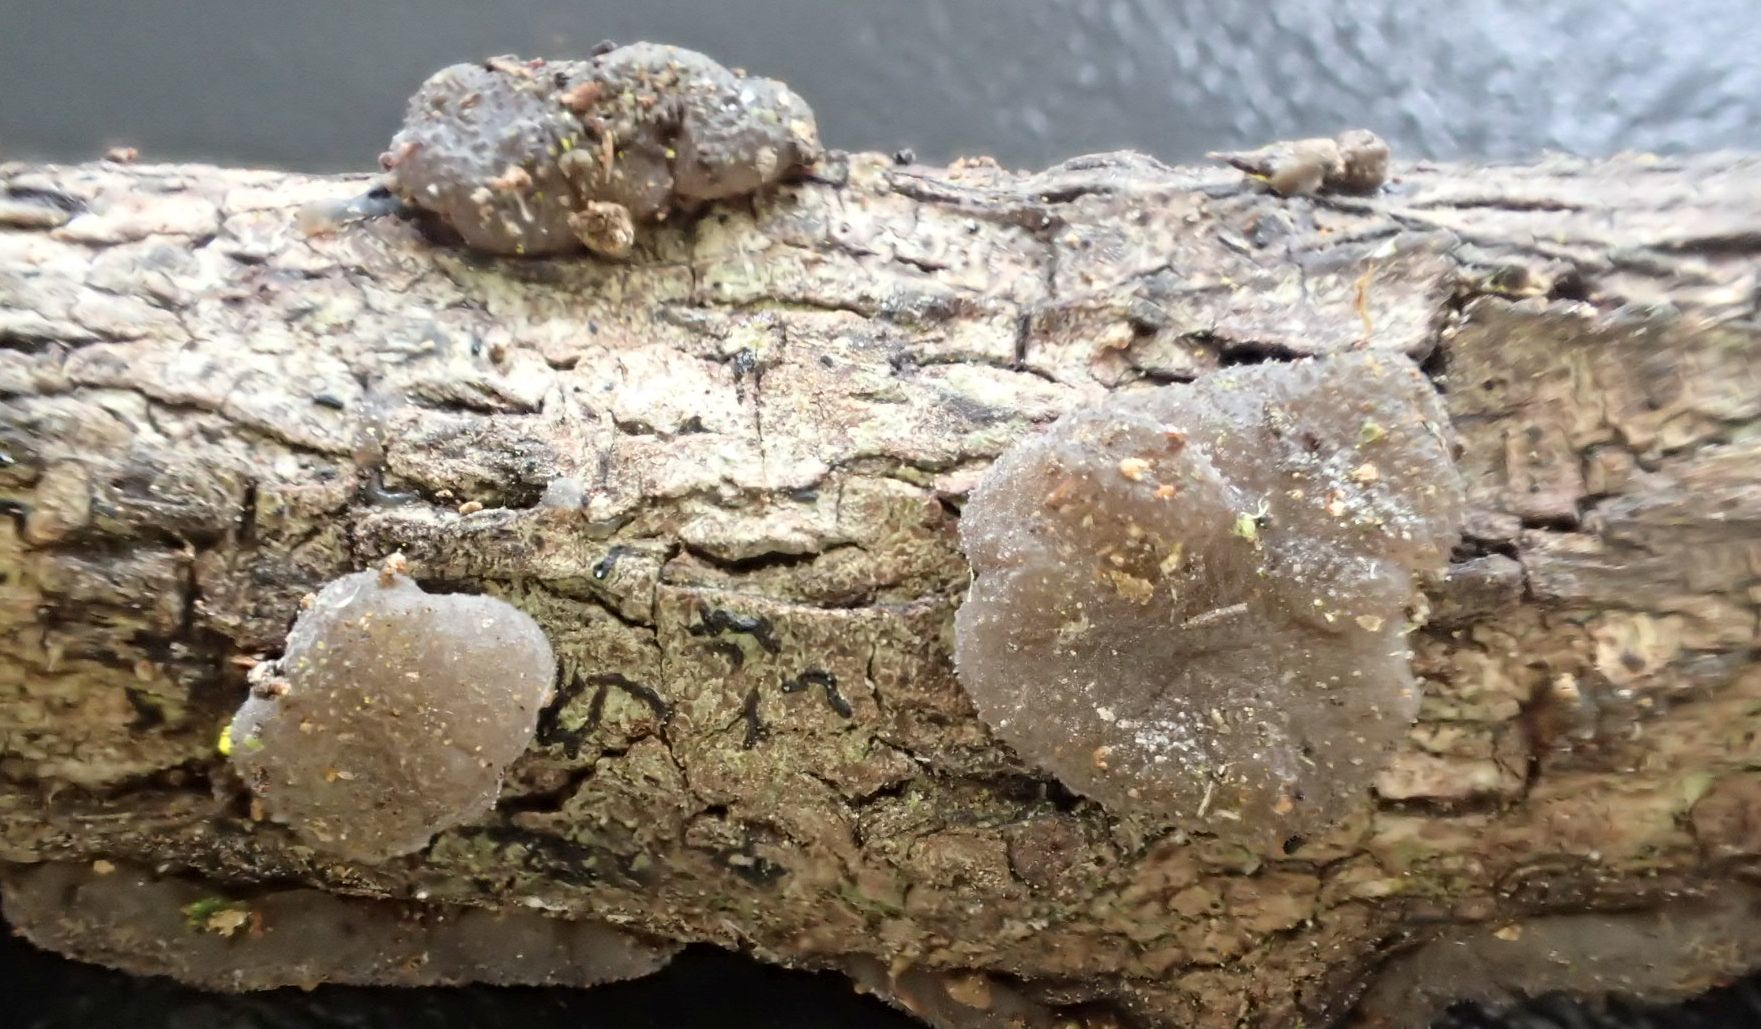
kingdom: Fungi
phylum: Basidiomycota
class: Agaricomycetes
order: Auriculariales
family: Auriculariaceae
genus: Tremellochaete
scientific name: Tremellochaete
